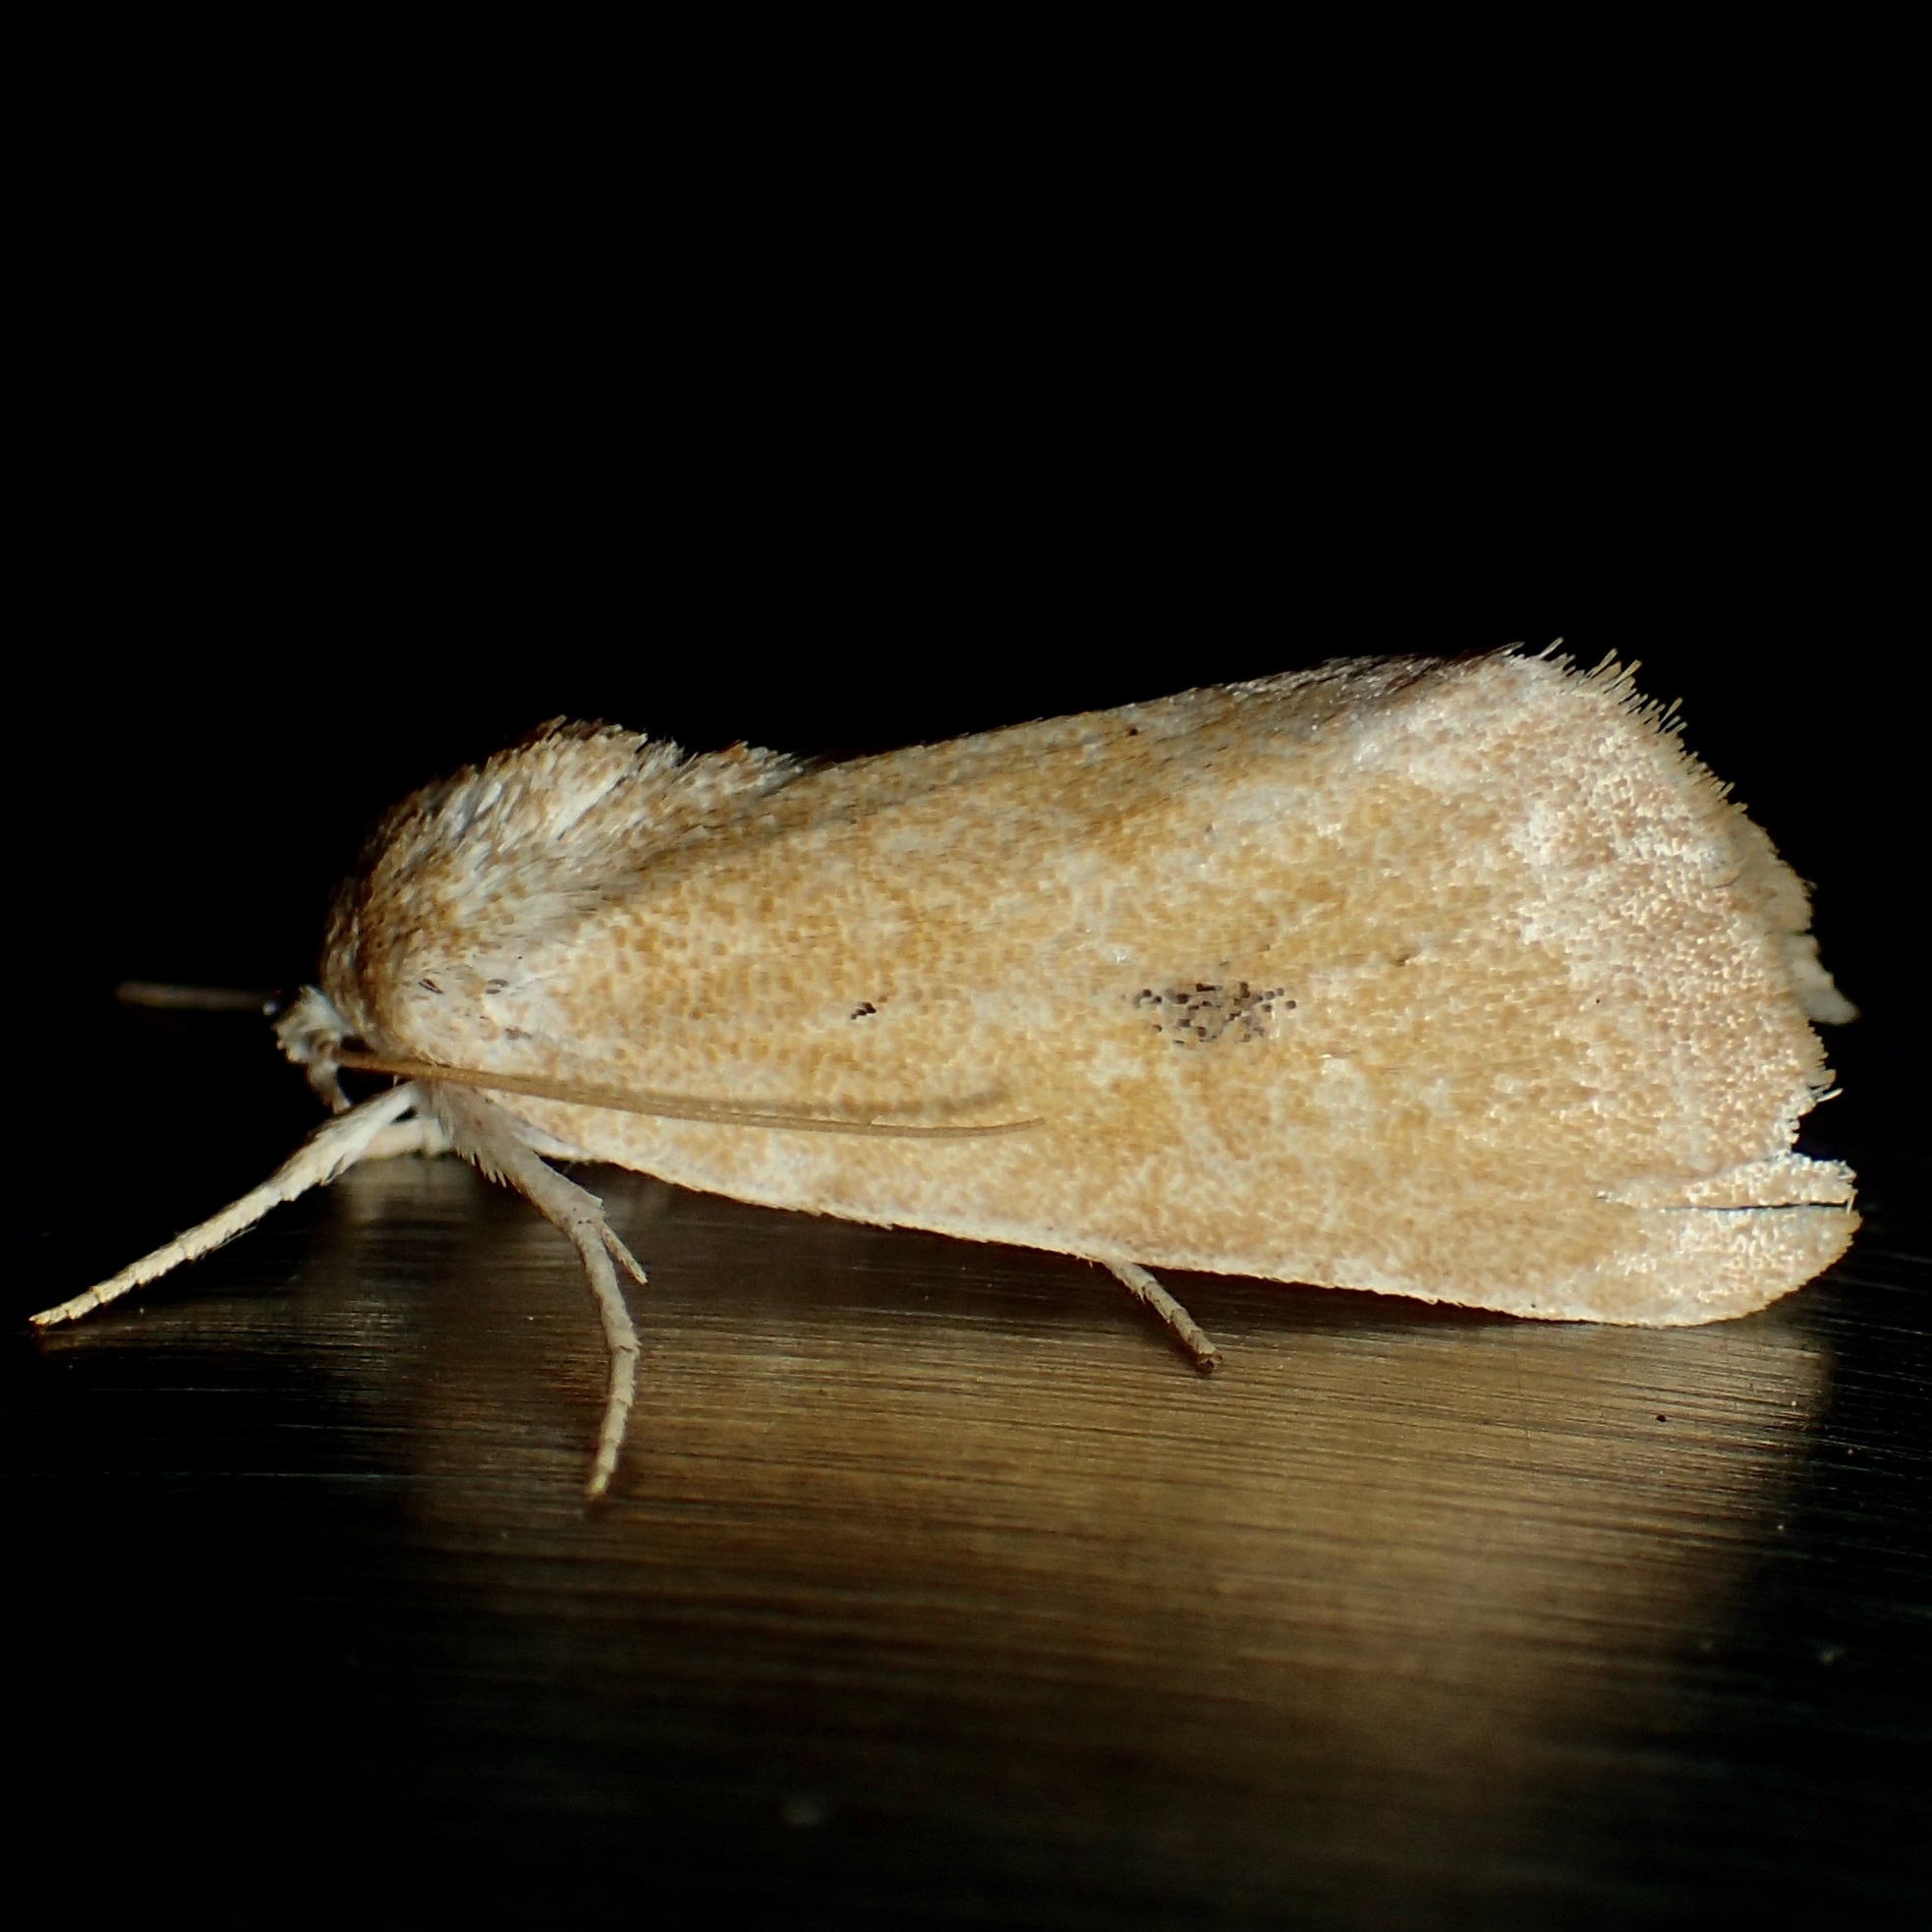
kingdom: Animalia
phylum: Arthropoda
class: Insecta
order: Lepidoptera
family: Noctuidae
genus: Trichocosmia
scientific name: Trichocosmia inornata
